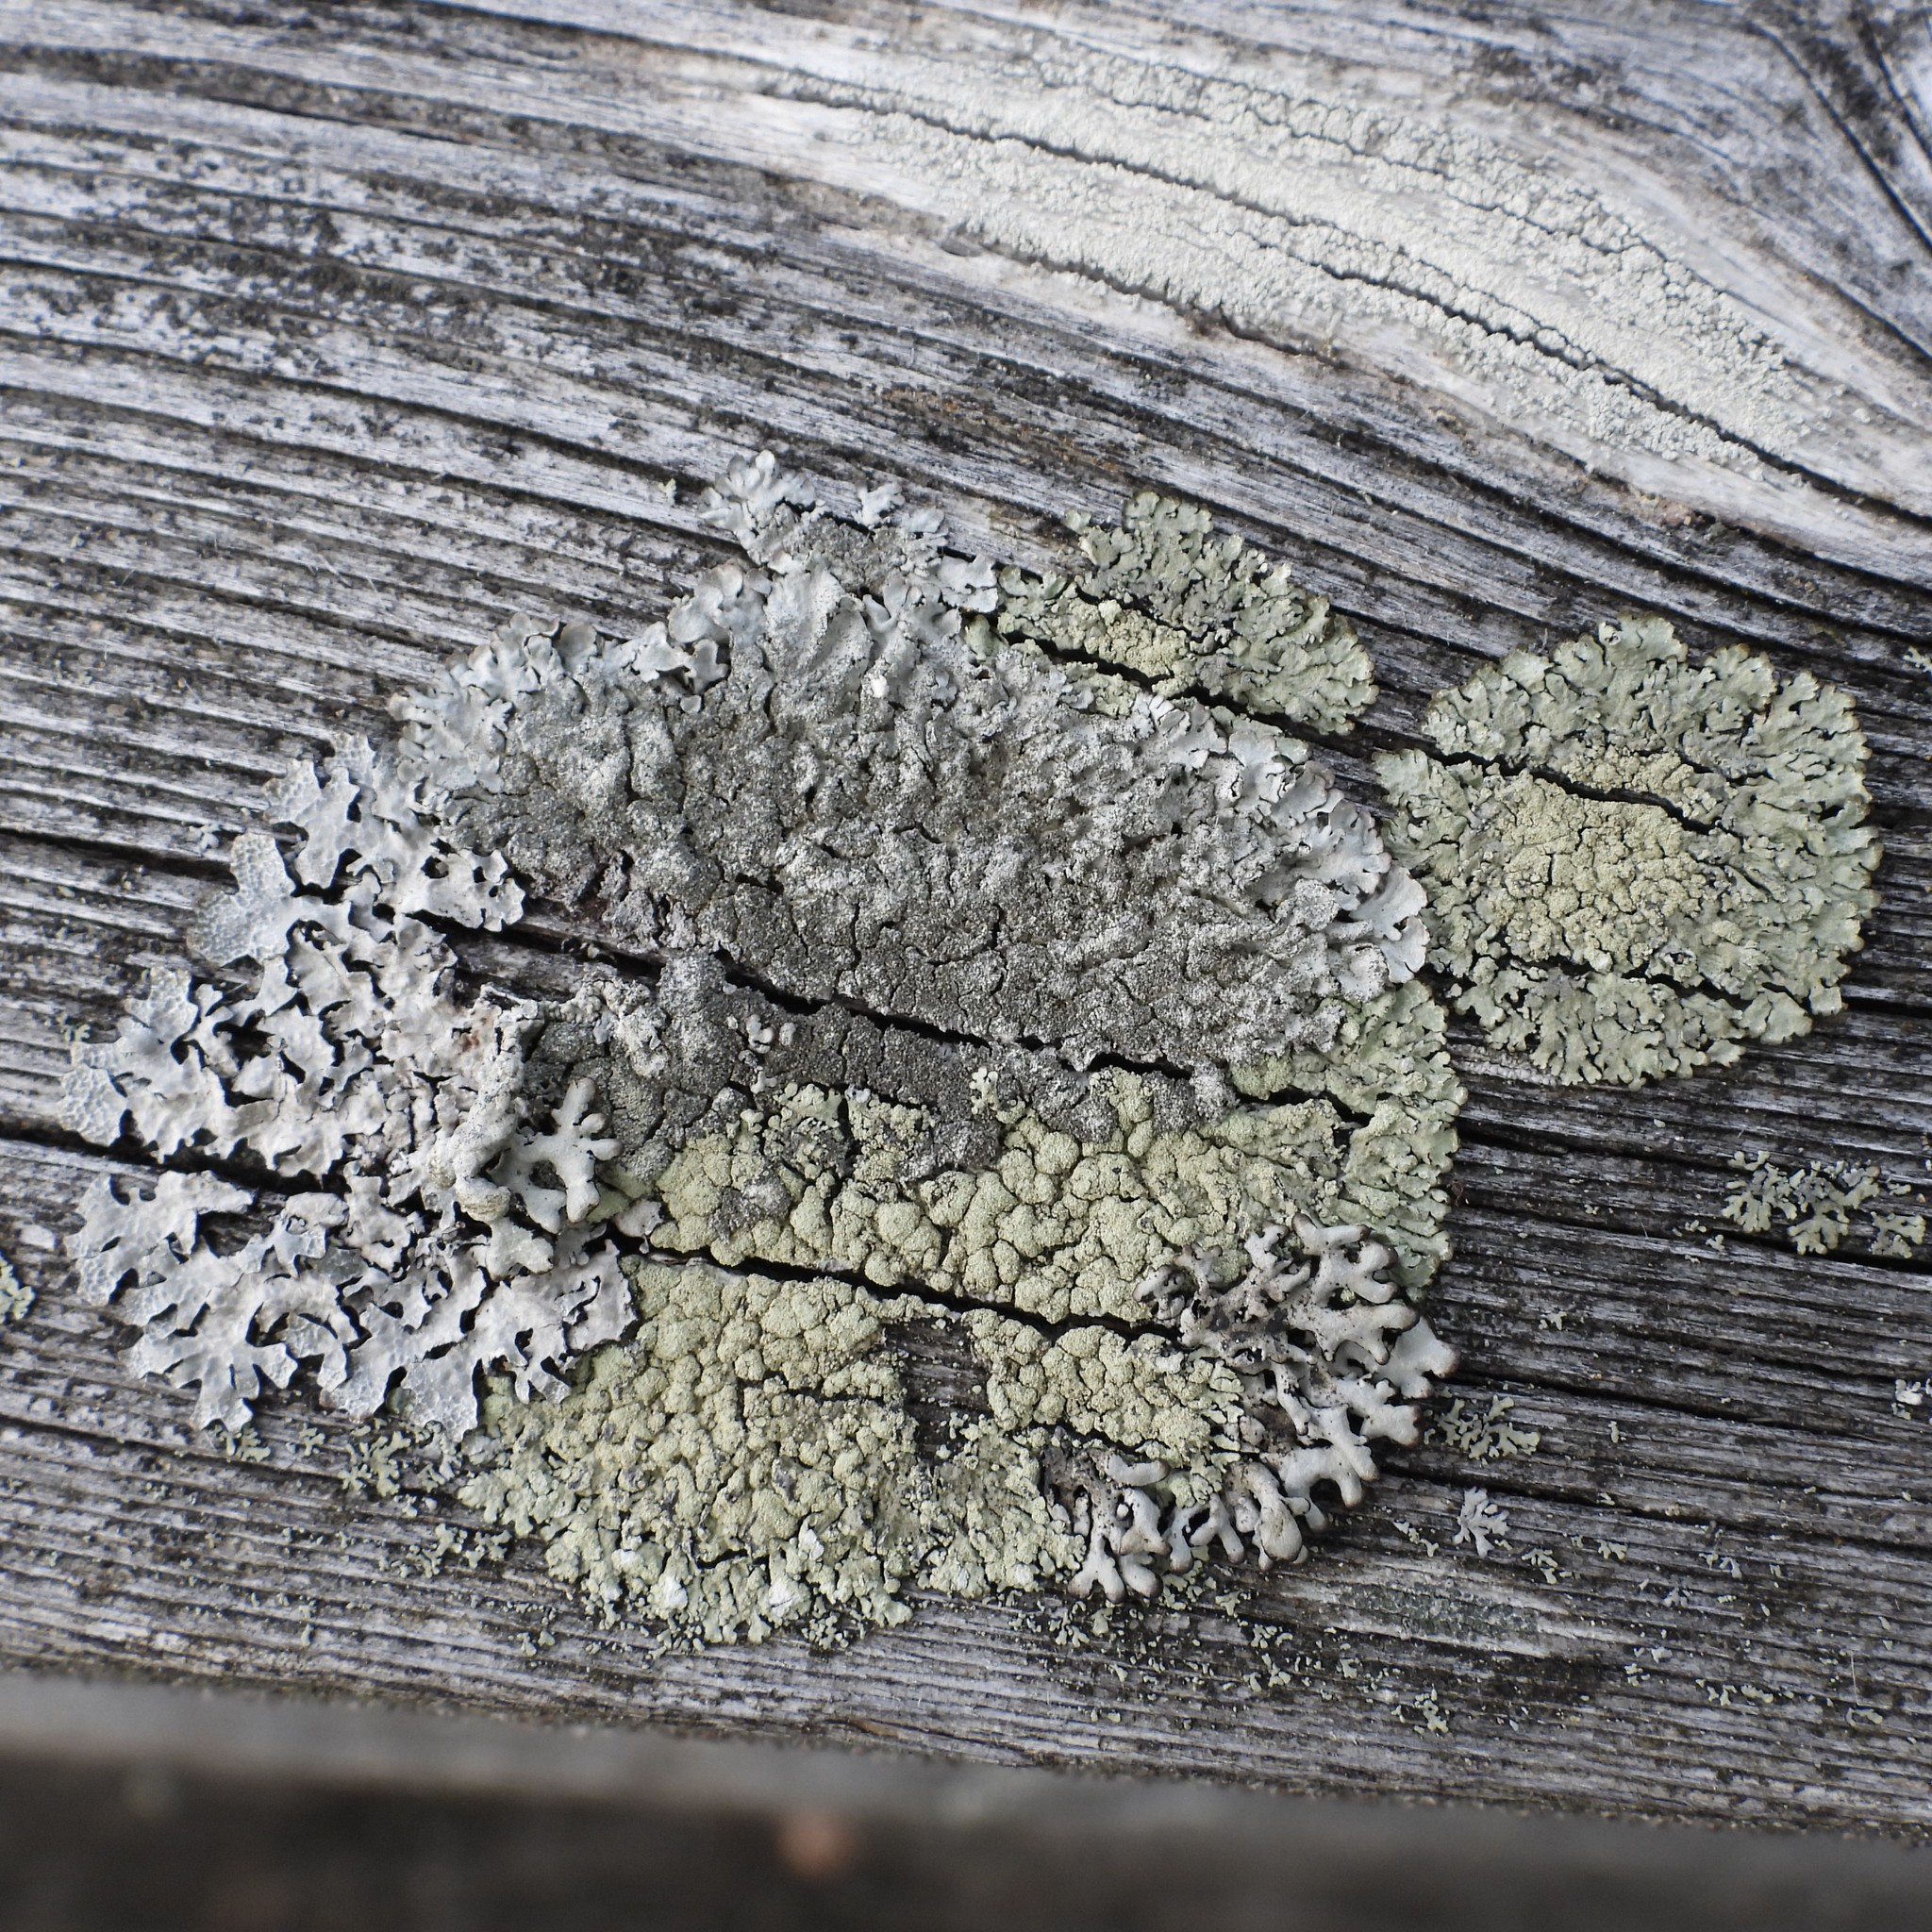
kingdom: Fungi
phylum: Ascomycota
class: Lecanoromycetes
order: Lecanorales
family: Parmeliaceae
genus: Parmeliopsis
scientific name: Parmeliopsis ambigua
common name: Green starburst lichen
